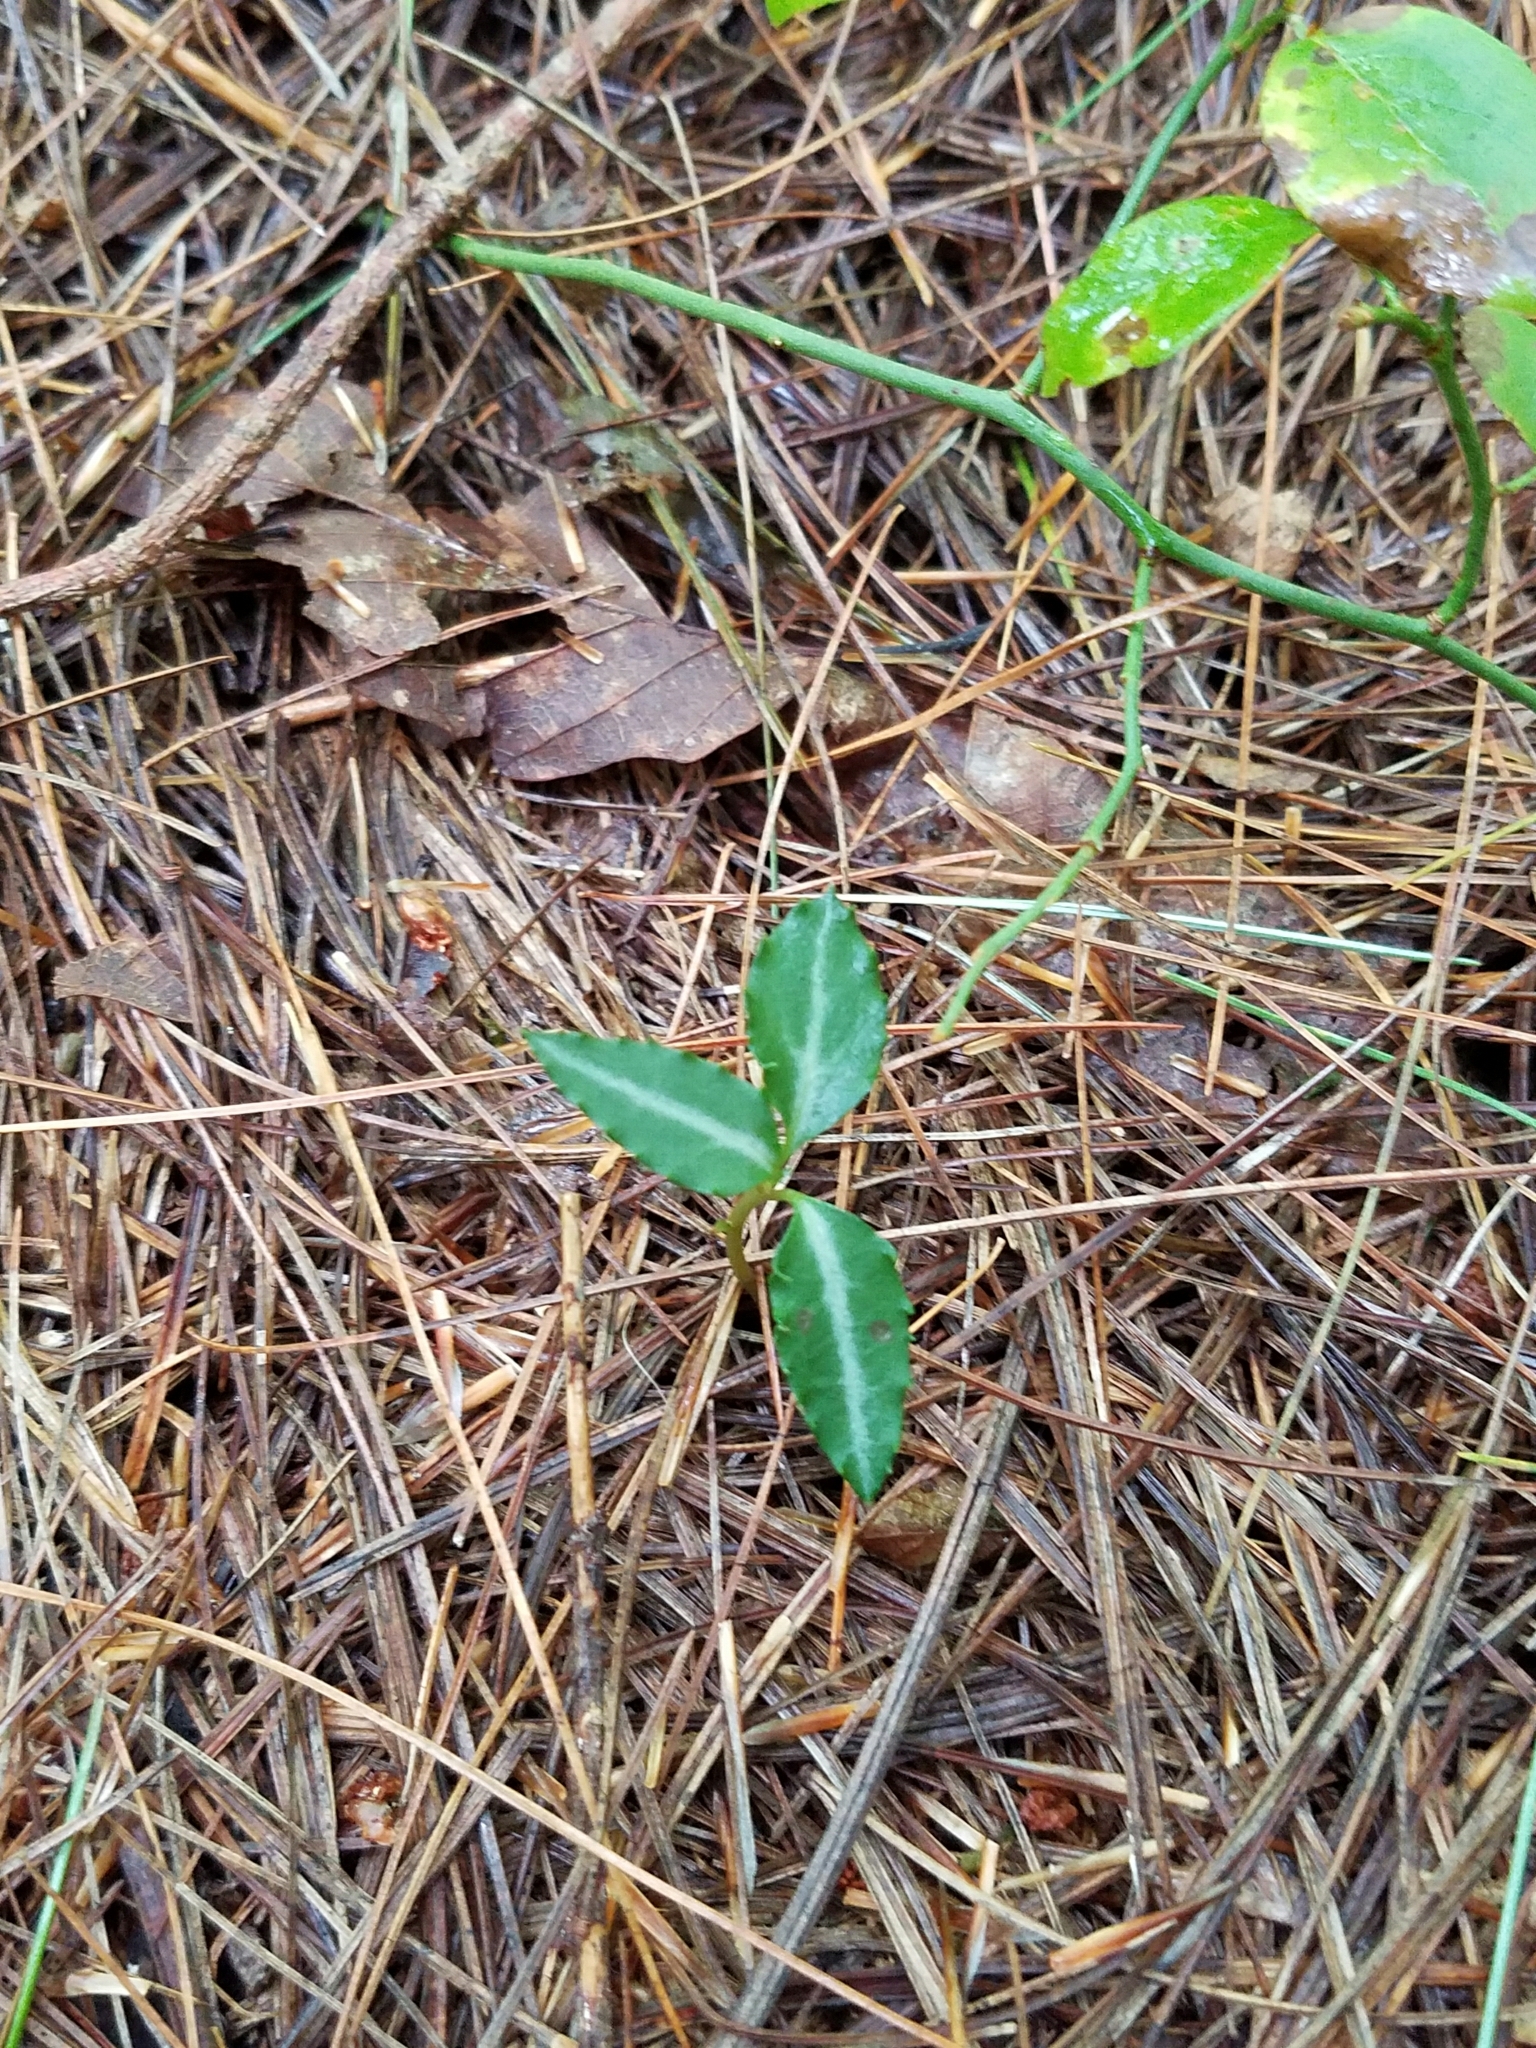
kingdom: Plantae
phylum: Tracheophyta
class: Magnoliopsida
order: Ericales
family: Ericaceae
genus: Chimaphila
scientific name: Chimaphila maculata
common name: Spotted pipsissewa
